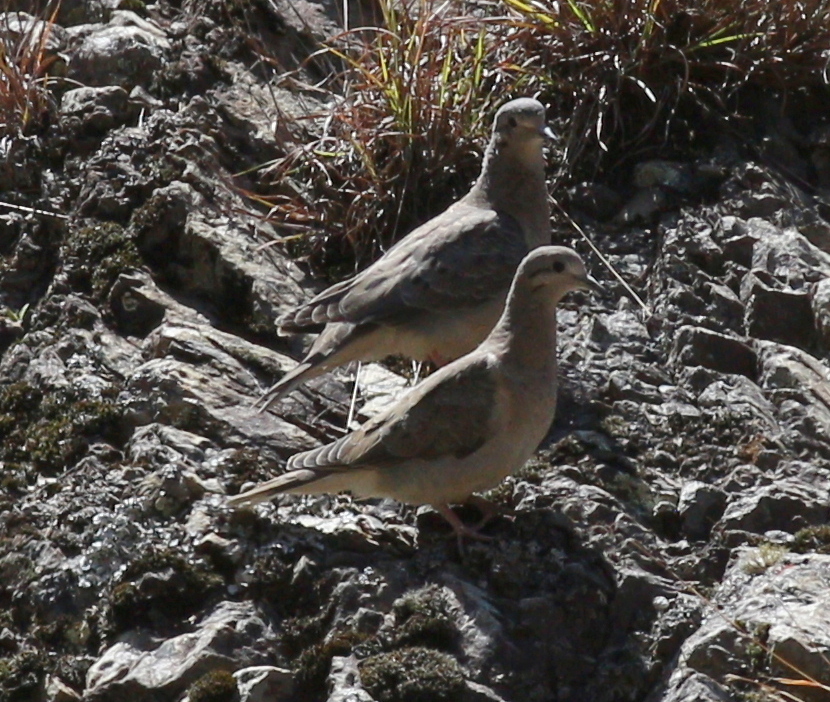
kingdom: Animalia
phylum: Chordata
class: Aves
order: Columbiformes
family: Columbidae
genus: Zenaida
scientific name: Zenaida auriculata
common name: Eared dove
